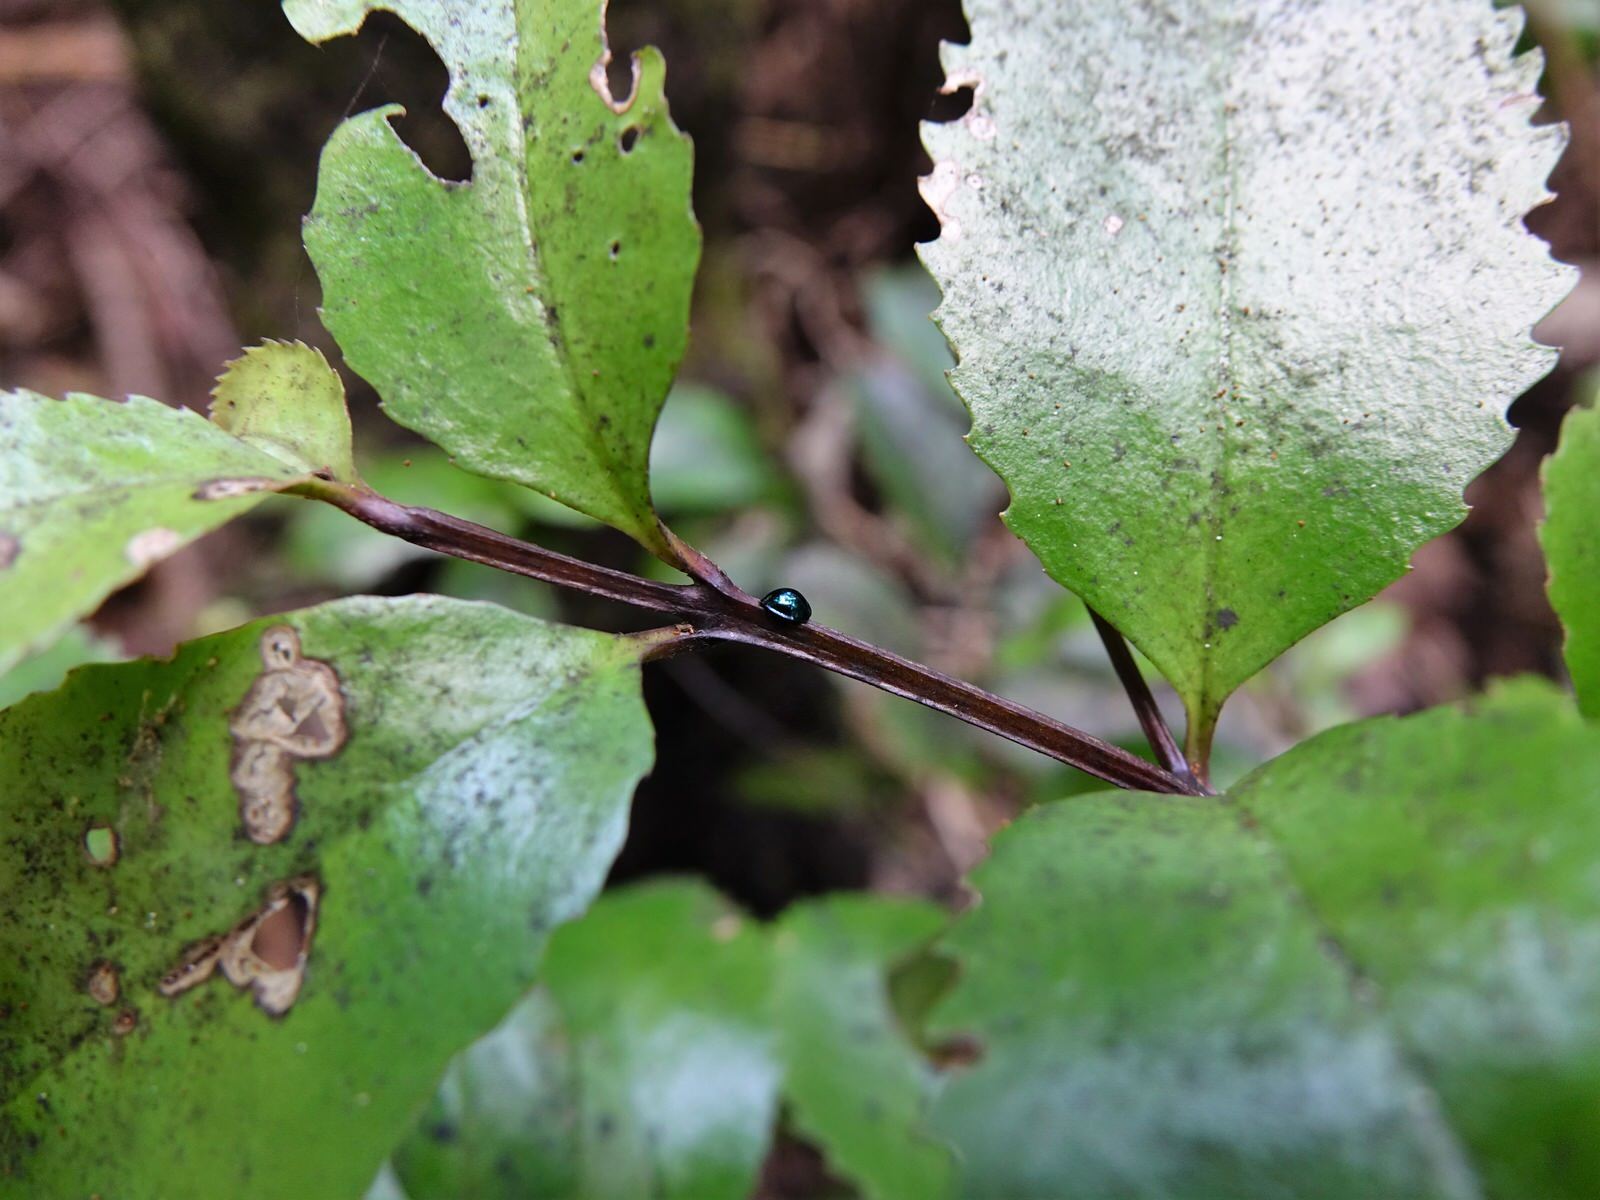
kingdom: Animalia
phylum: Arthropoda
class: Insecta
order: Coleoptera
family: Coccinellidae
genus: Halmus
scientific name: Halmus chalybeus
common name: Steel blue ladybird beetle
